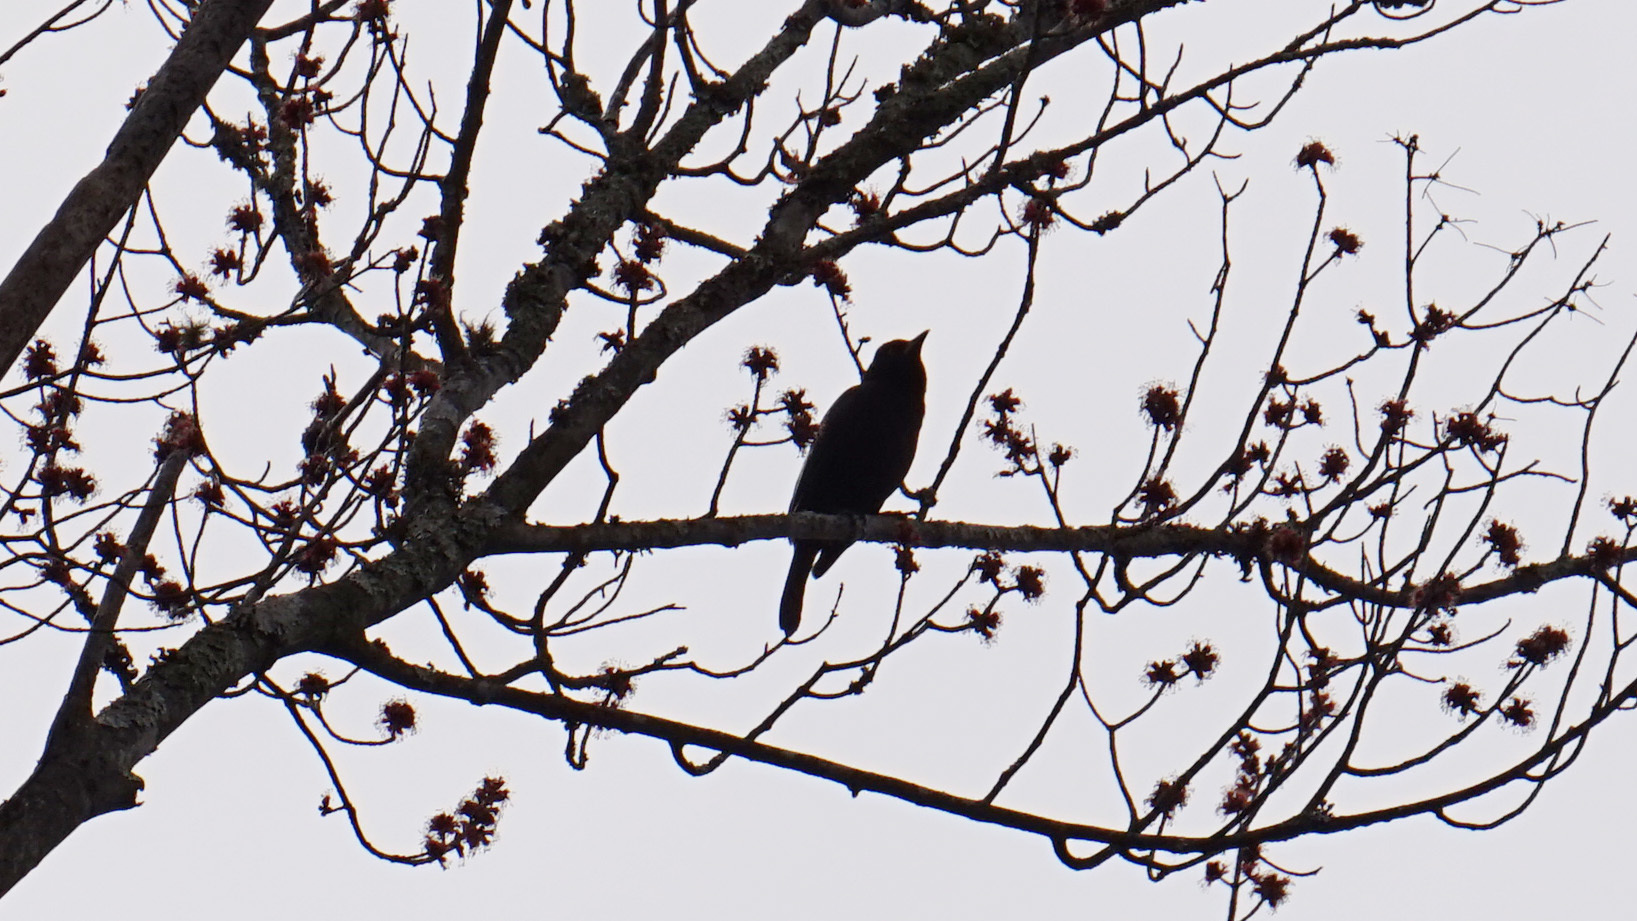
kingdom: Animalia
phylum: Chordata
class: Aves
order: Passeriformes
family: Icteridae
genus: Quiscalus
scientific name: Quiscalus quiscula
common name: Common grackle
